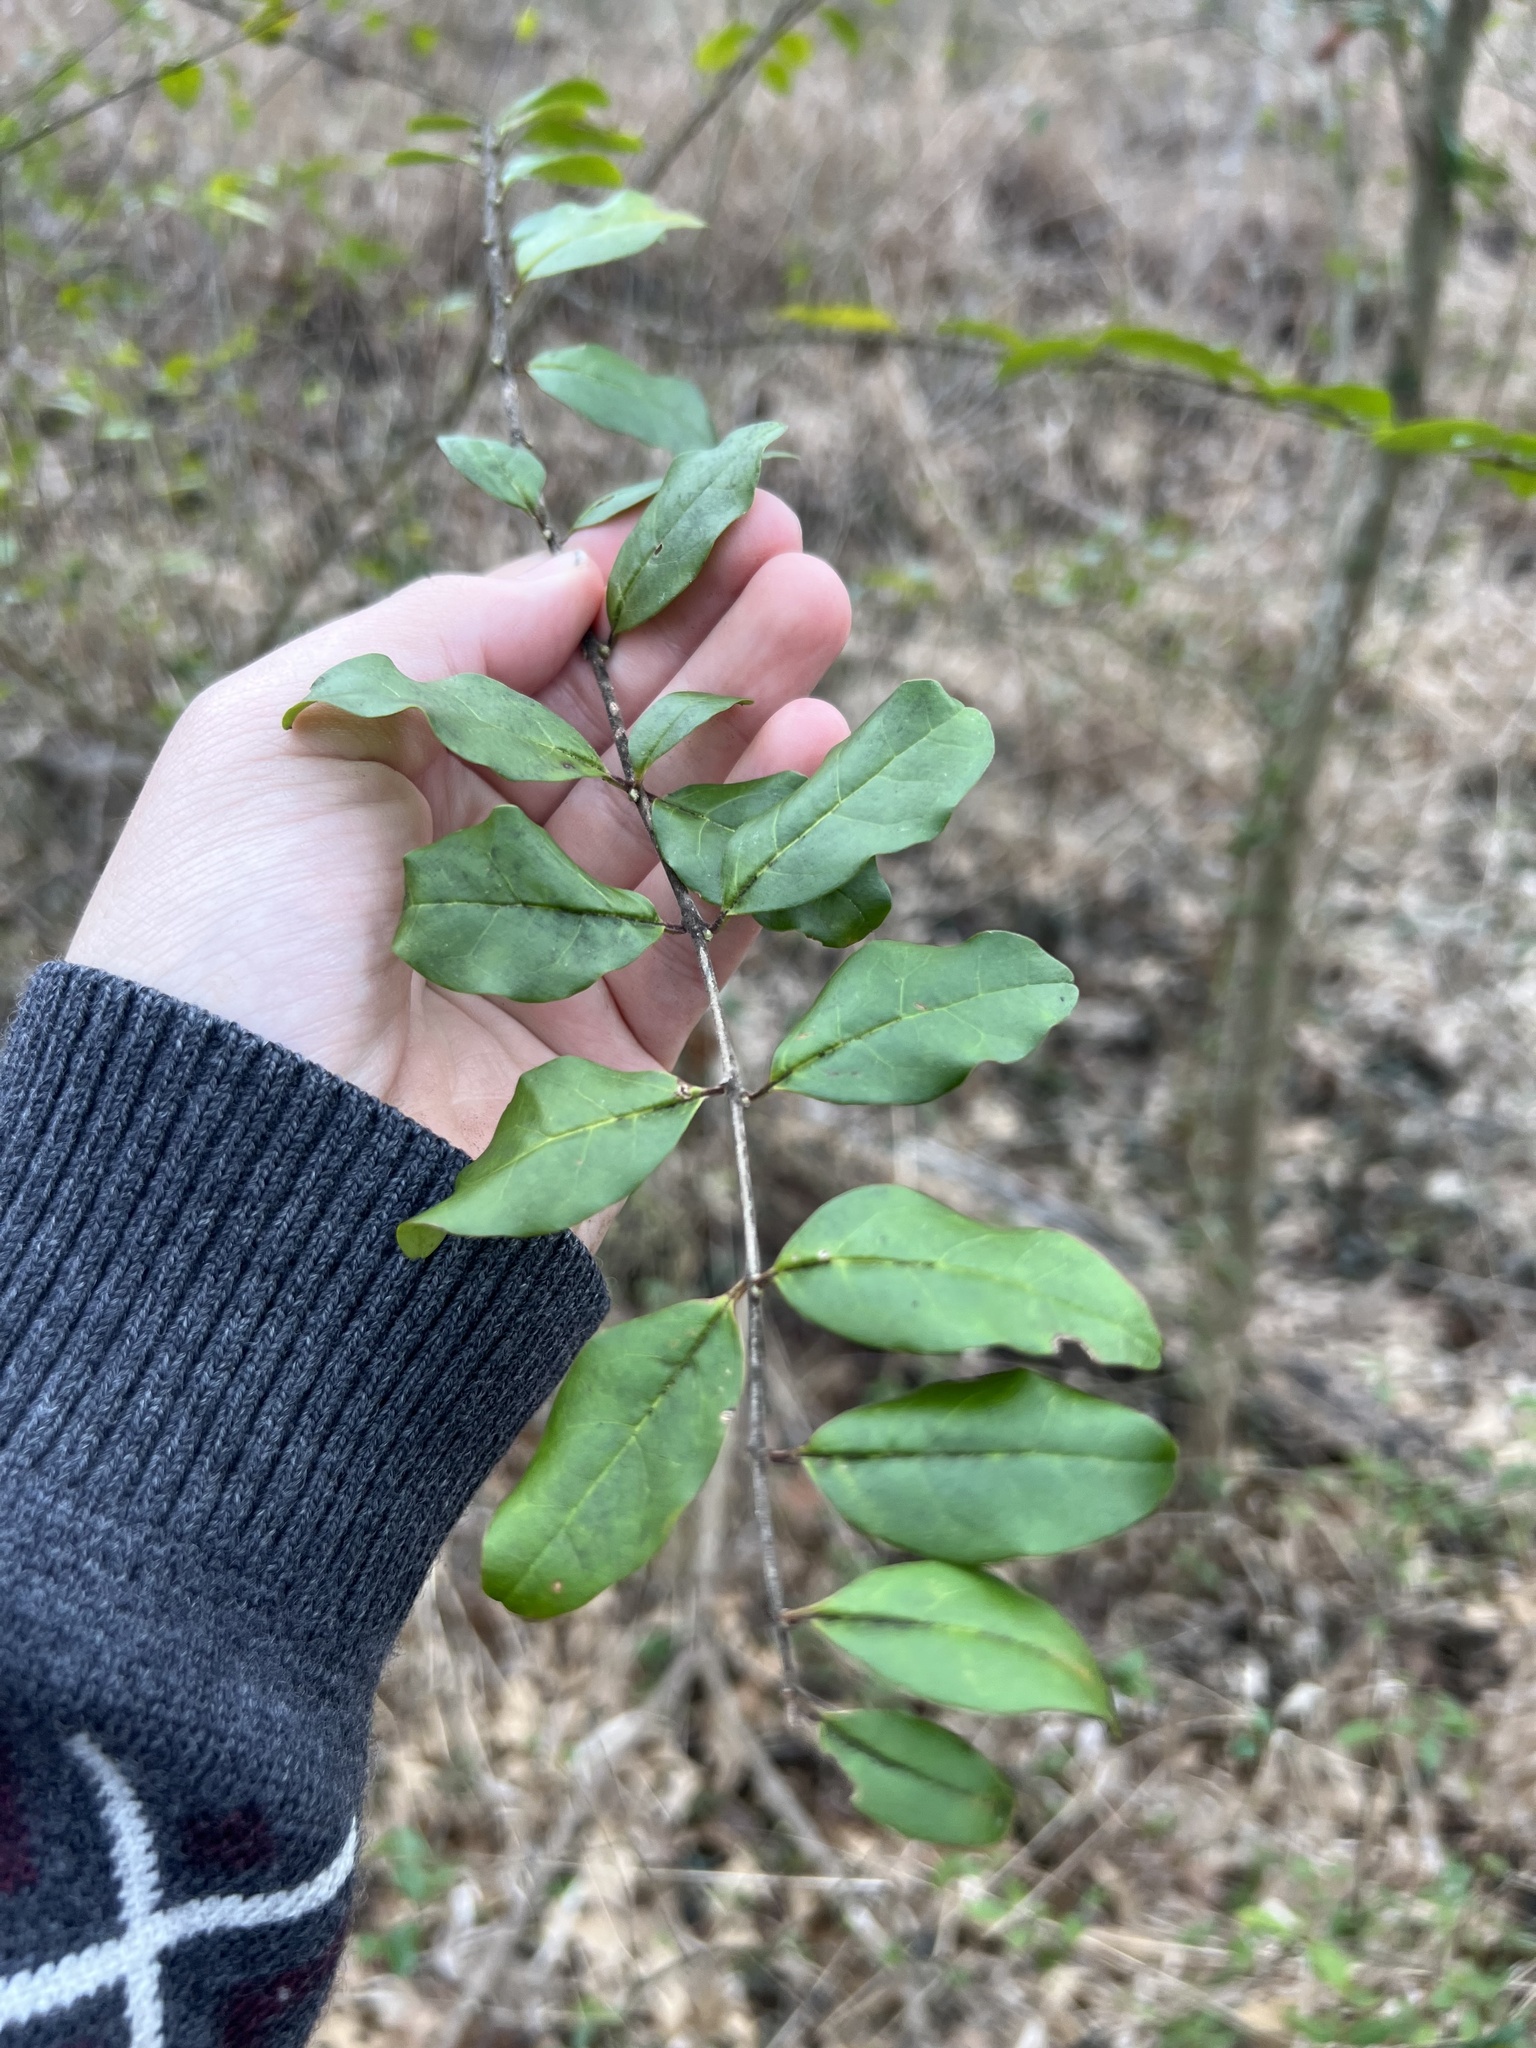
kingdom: Plantae
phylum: Tracheophyta
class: Magnoliopsida
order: Lamiales
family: Oleaceae
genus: Ligustrum
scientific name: Ligustrum sinense
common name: Chinese privet
